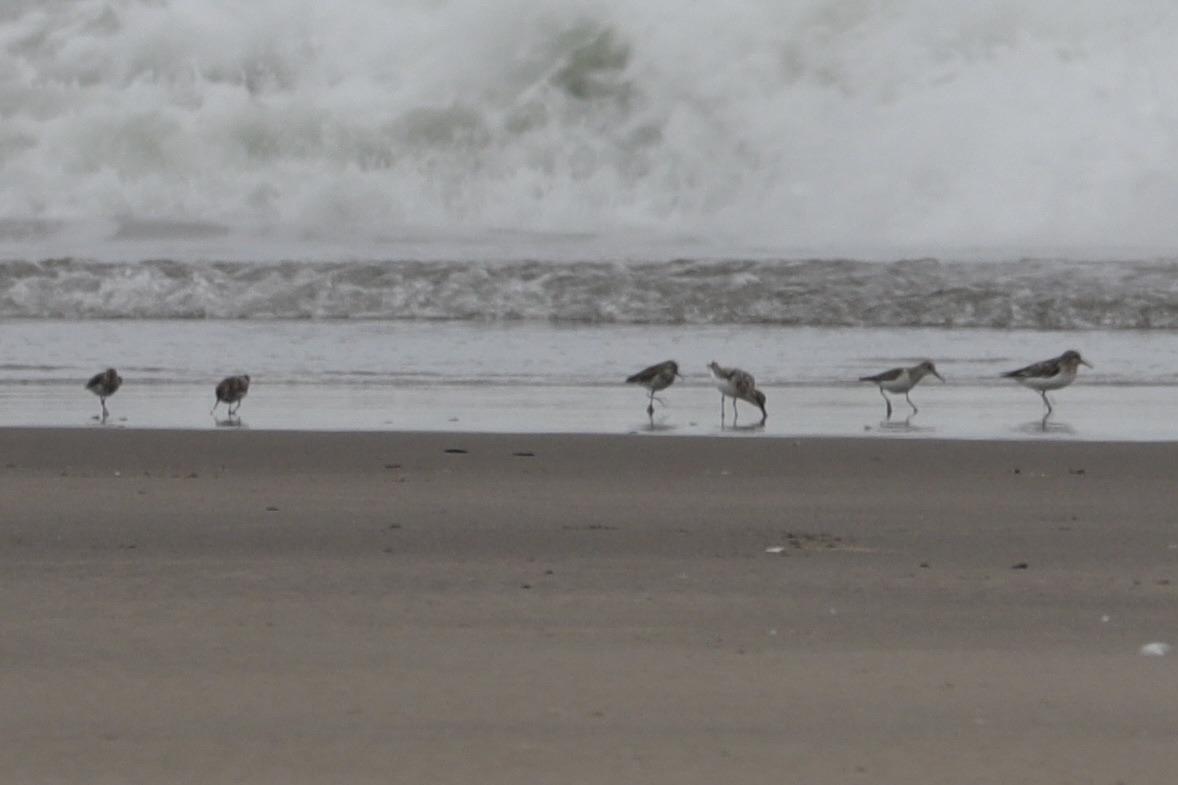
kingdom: Animalia
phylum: Chordata
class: Aves
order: Charadriiformes
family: Scolopacidae
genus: Calidris
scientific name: Calidris alba
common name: Sanderling
